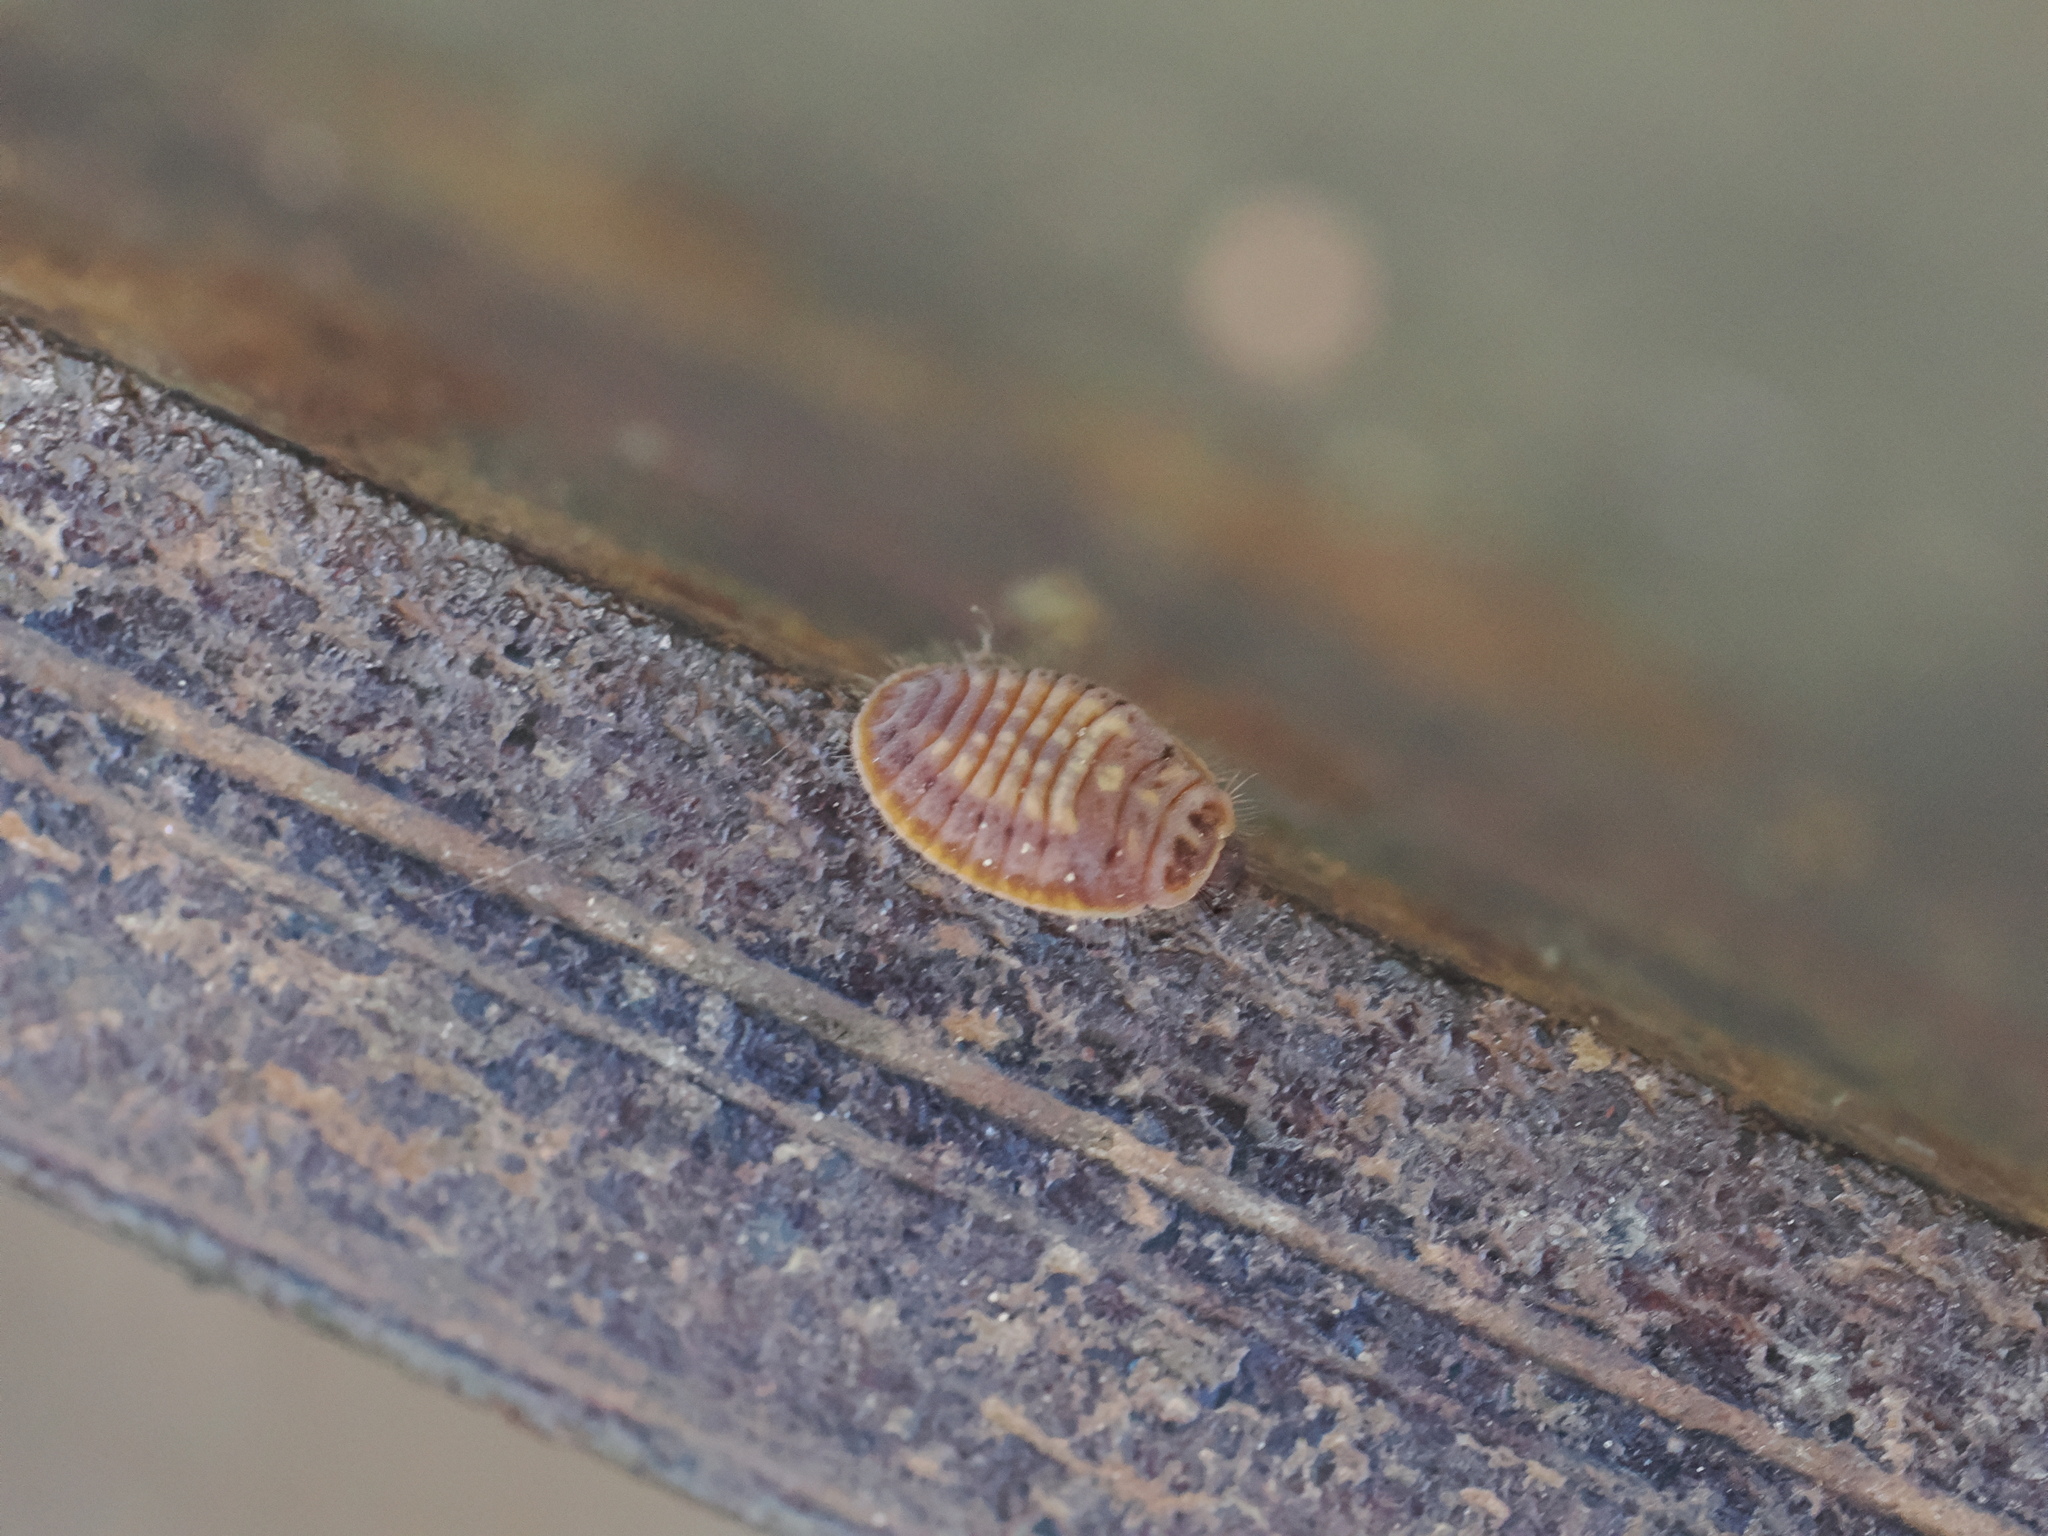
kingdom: Animalia
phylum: Arthropoda
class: Insecta
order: Coleoptera
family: Coccinellidae
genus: Platynaspis
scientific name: Platynaspis luteorubra
